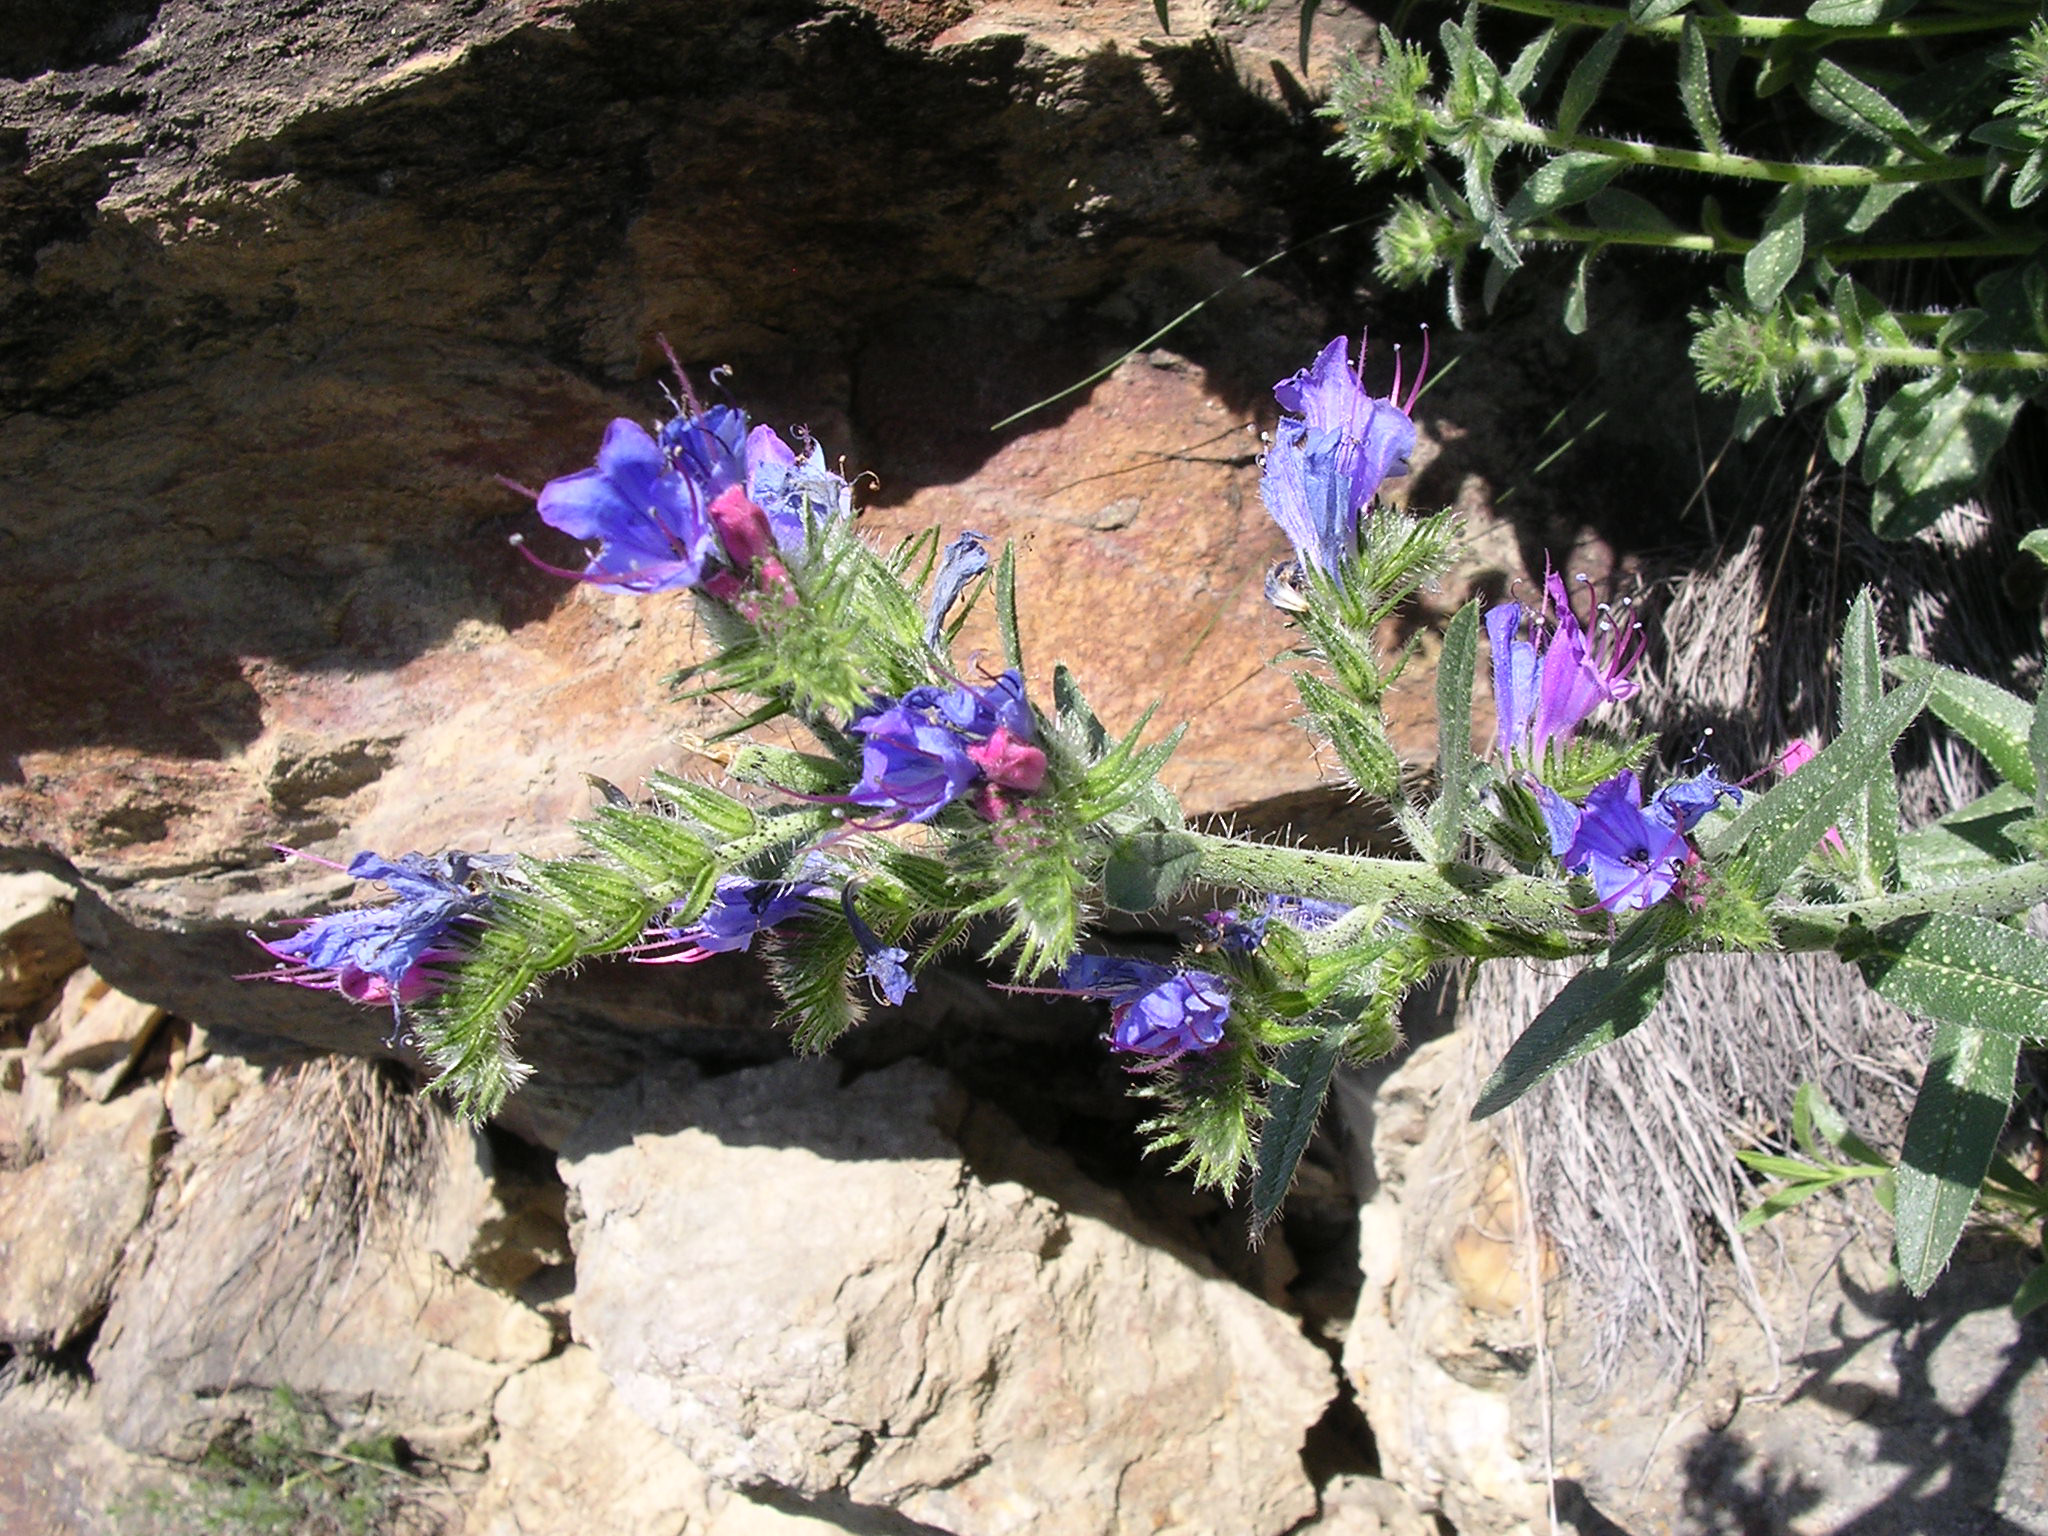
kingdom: Plantae
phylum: Tracheophyta
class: Magnoliopsida
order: Boraginales
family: Boraginaceae
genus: Echium
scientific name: Echium vulgare
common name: Common viper's bugloss
